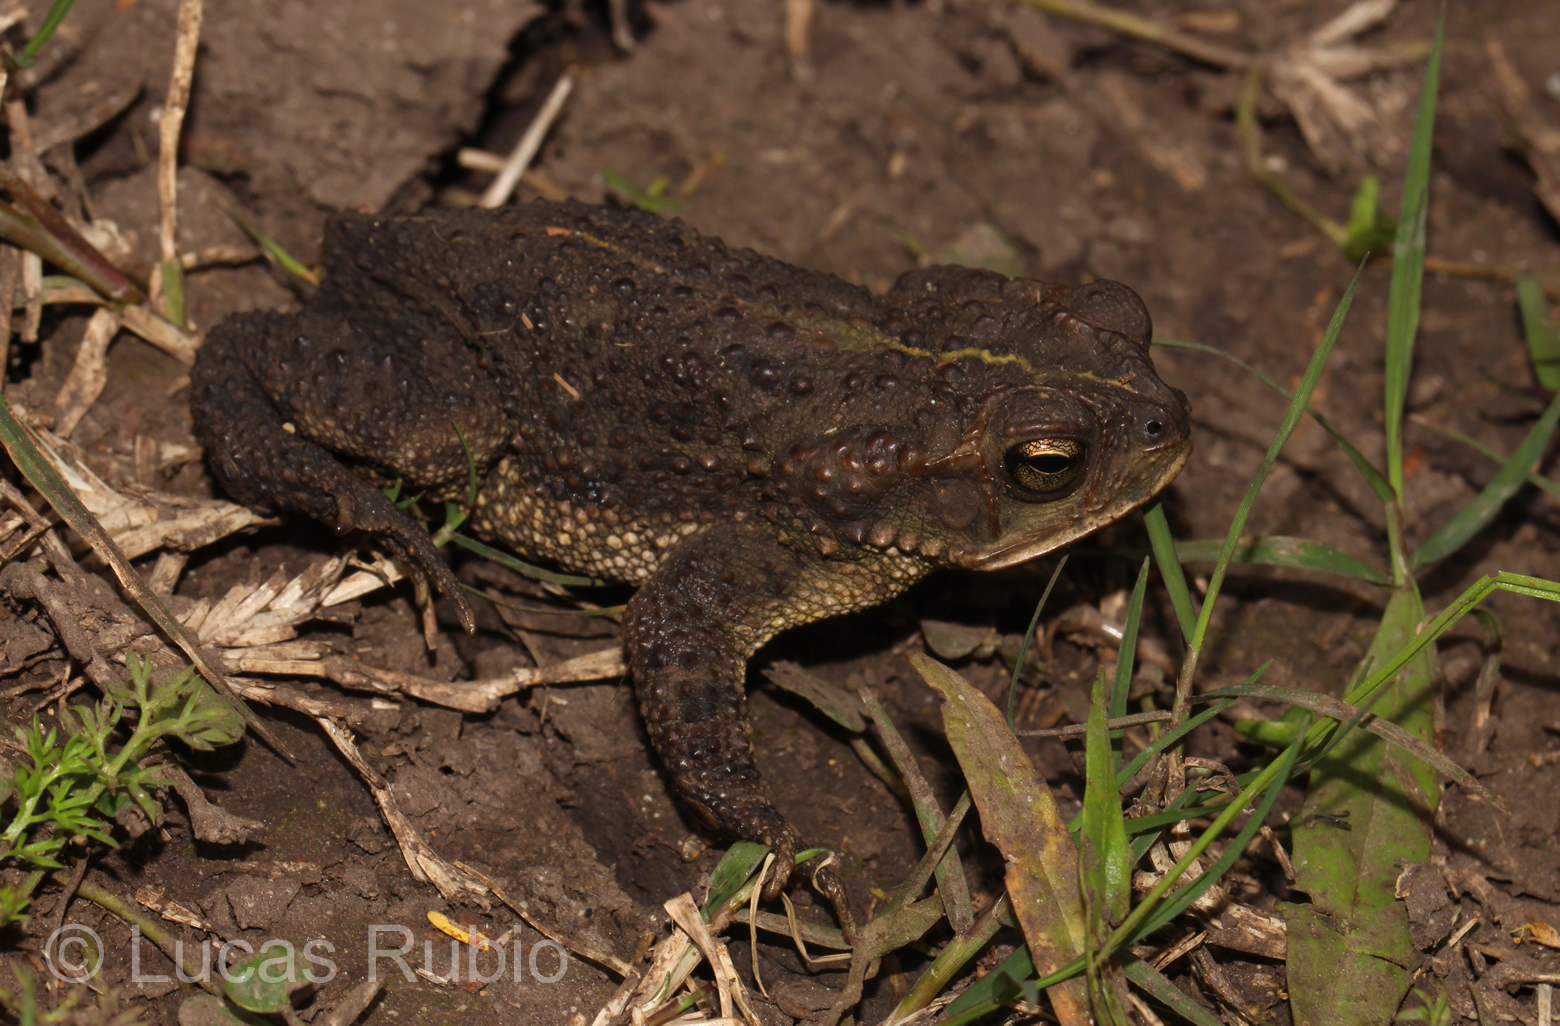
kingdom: Animalia
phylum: Chordata
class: Amphibia
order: Anura
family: Bufonidae
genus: Rhinella
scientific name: Rhinella dorbignyi
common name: D´orbigny’s toad
